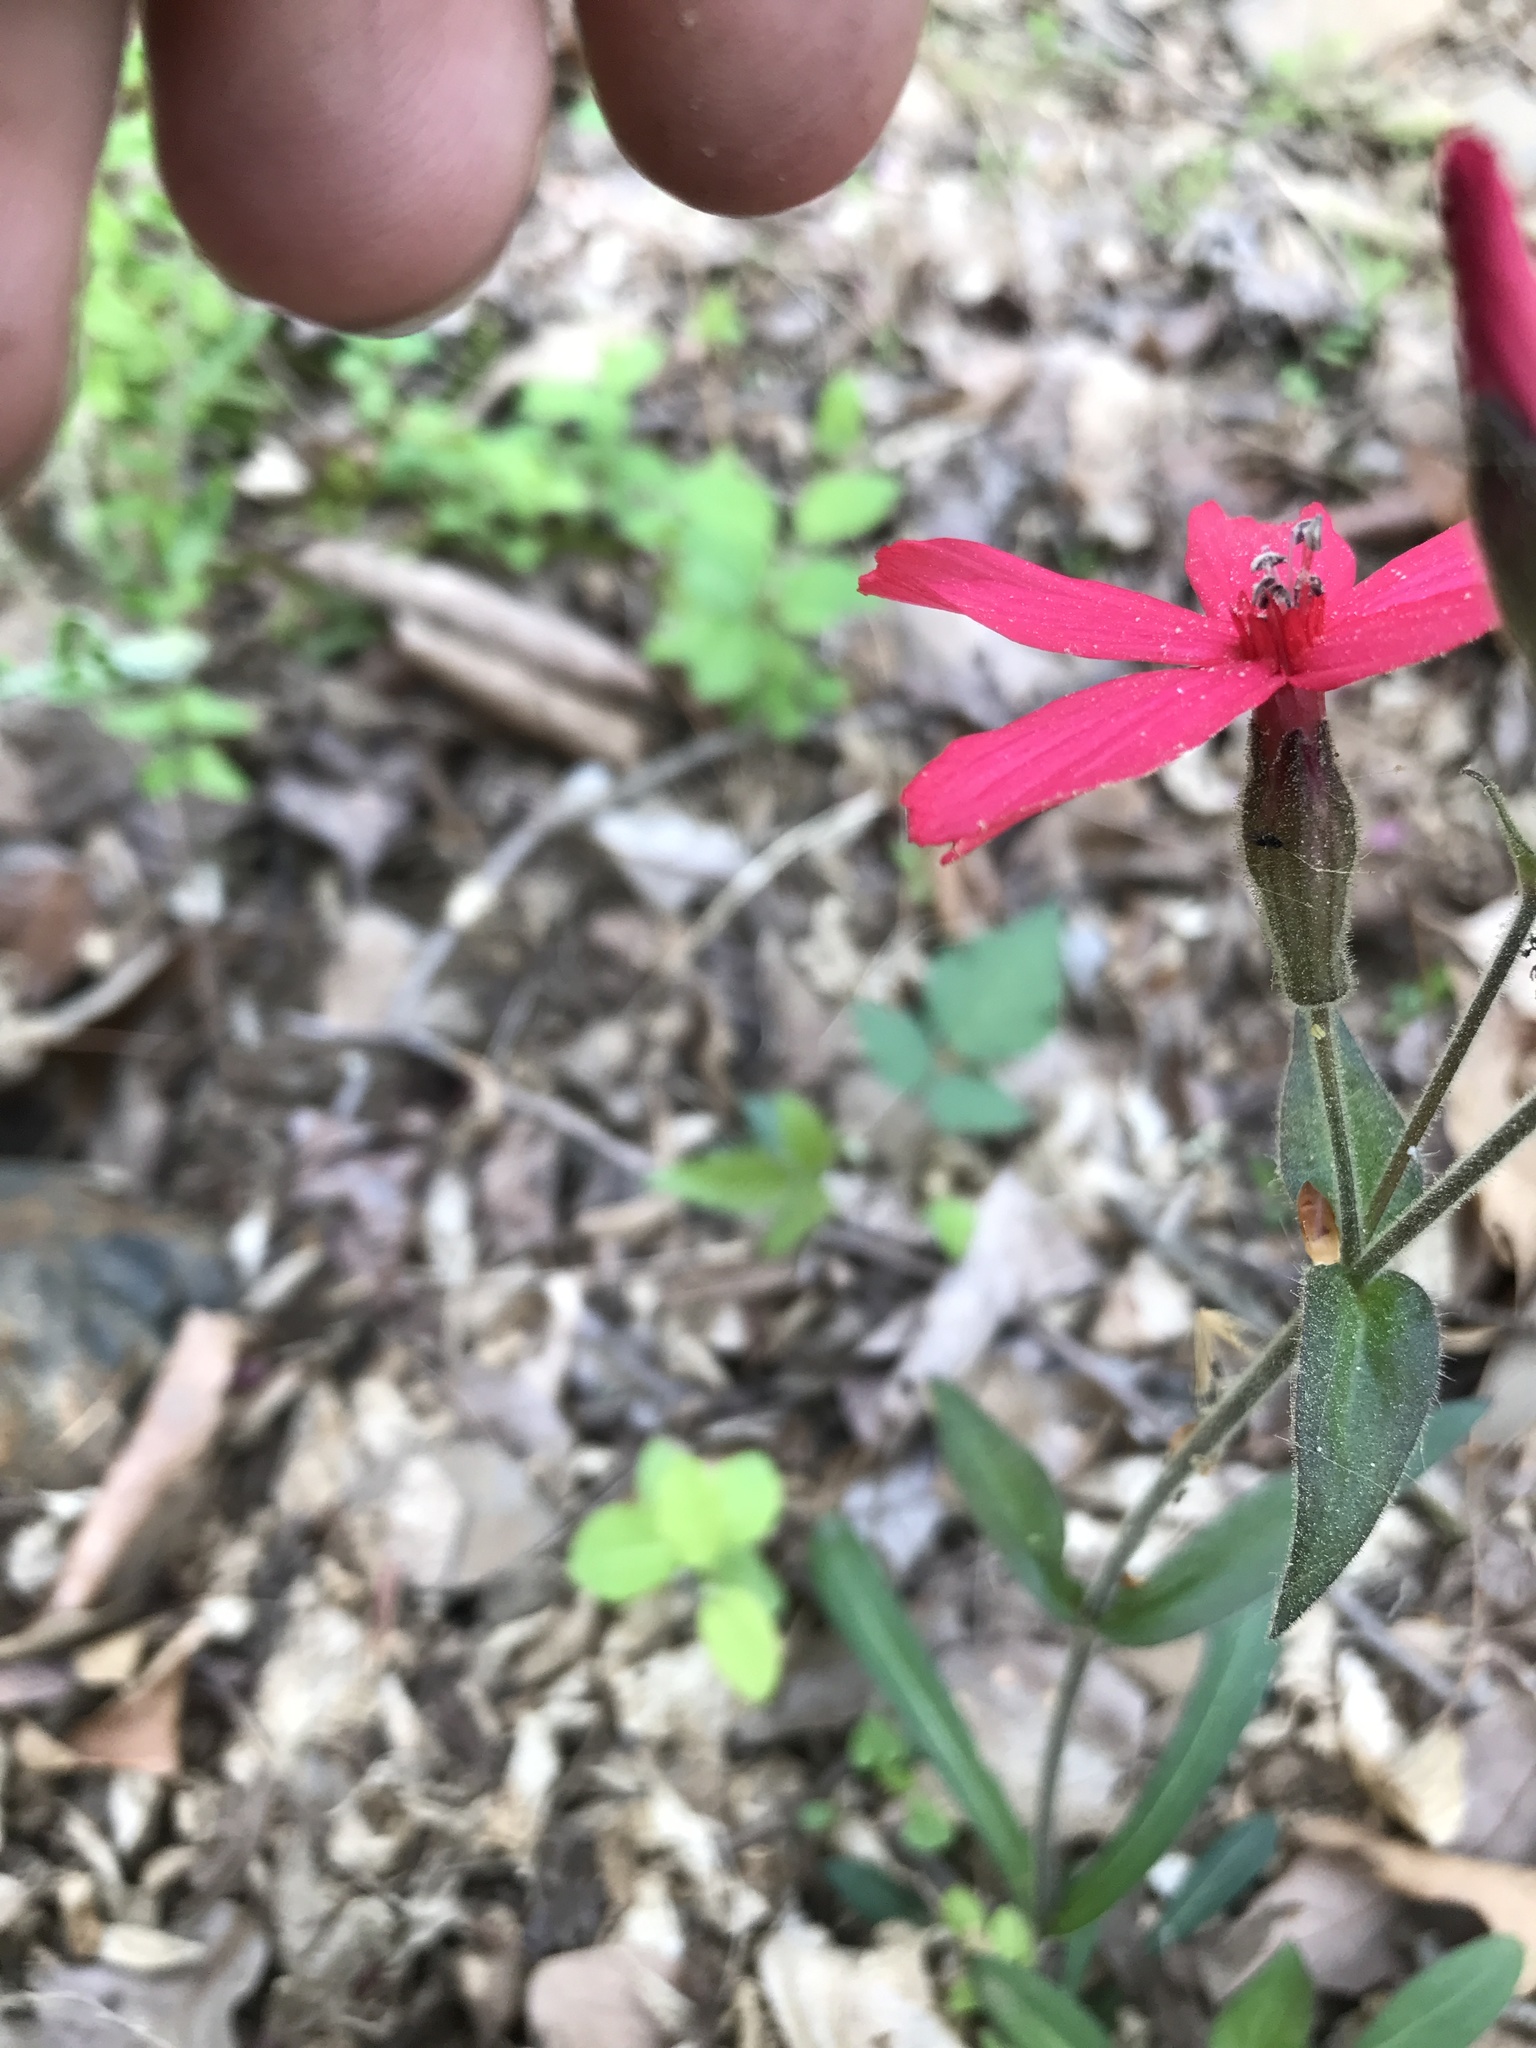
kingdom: Plantae
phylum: Tracheophyta
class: Magnoliopsida
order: Caryophyllales
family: Caryophyllaceae
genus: Silene
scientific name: Silene virginica
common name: Fire-pink
